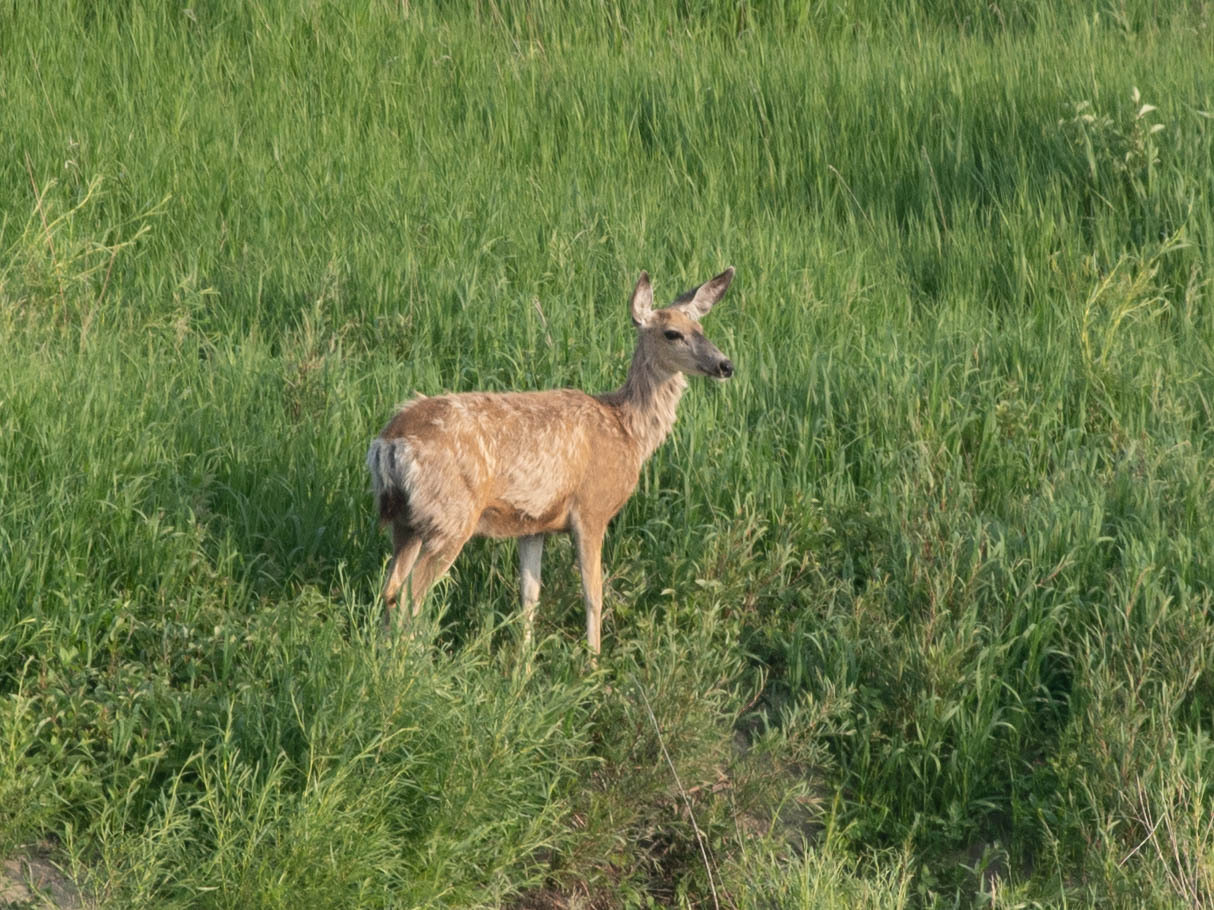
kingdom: Animalia
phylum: Chordata
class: Mammalia
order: Artiodactyla
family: Cervidae
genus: Odocoileus
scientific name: Odocoileus hemionus
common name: Mule deer
